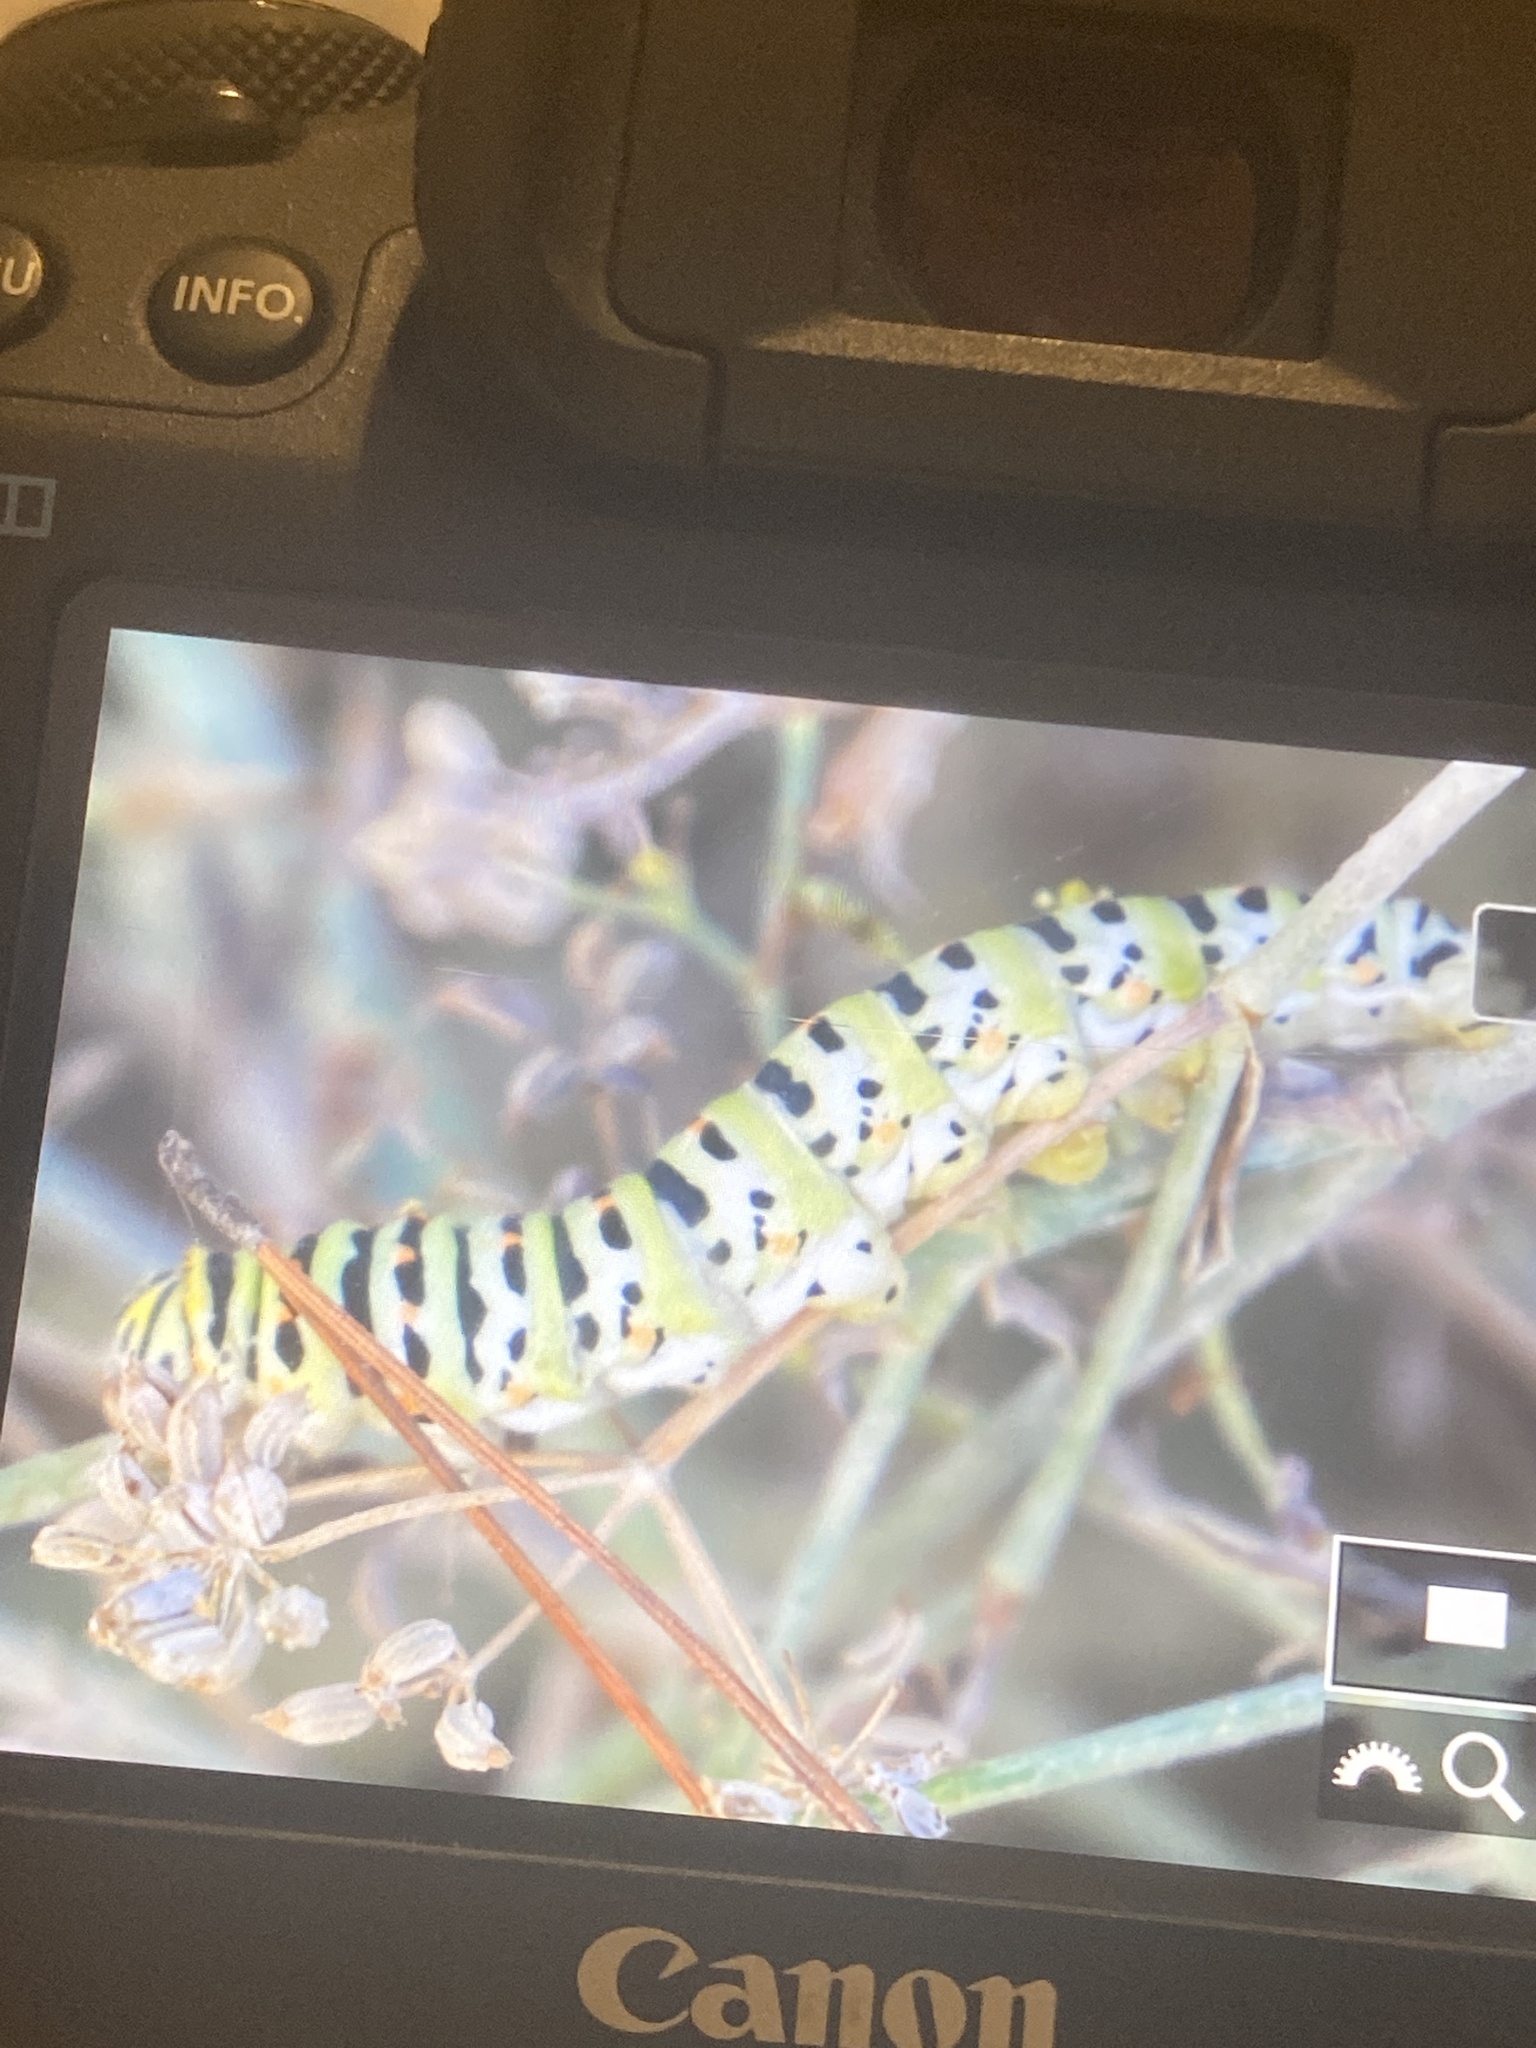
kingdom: Animalia
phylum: Arthropoda
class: Insecta
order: Lepidoptera
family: Papilionidae
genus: Papilio
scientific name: Papilio machaon
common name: Swallowtail
